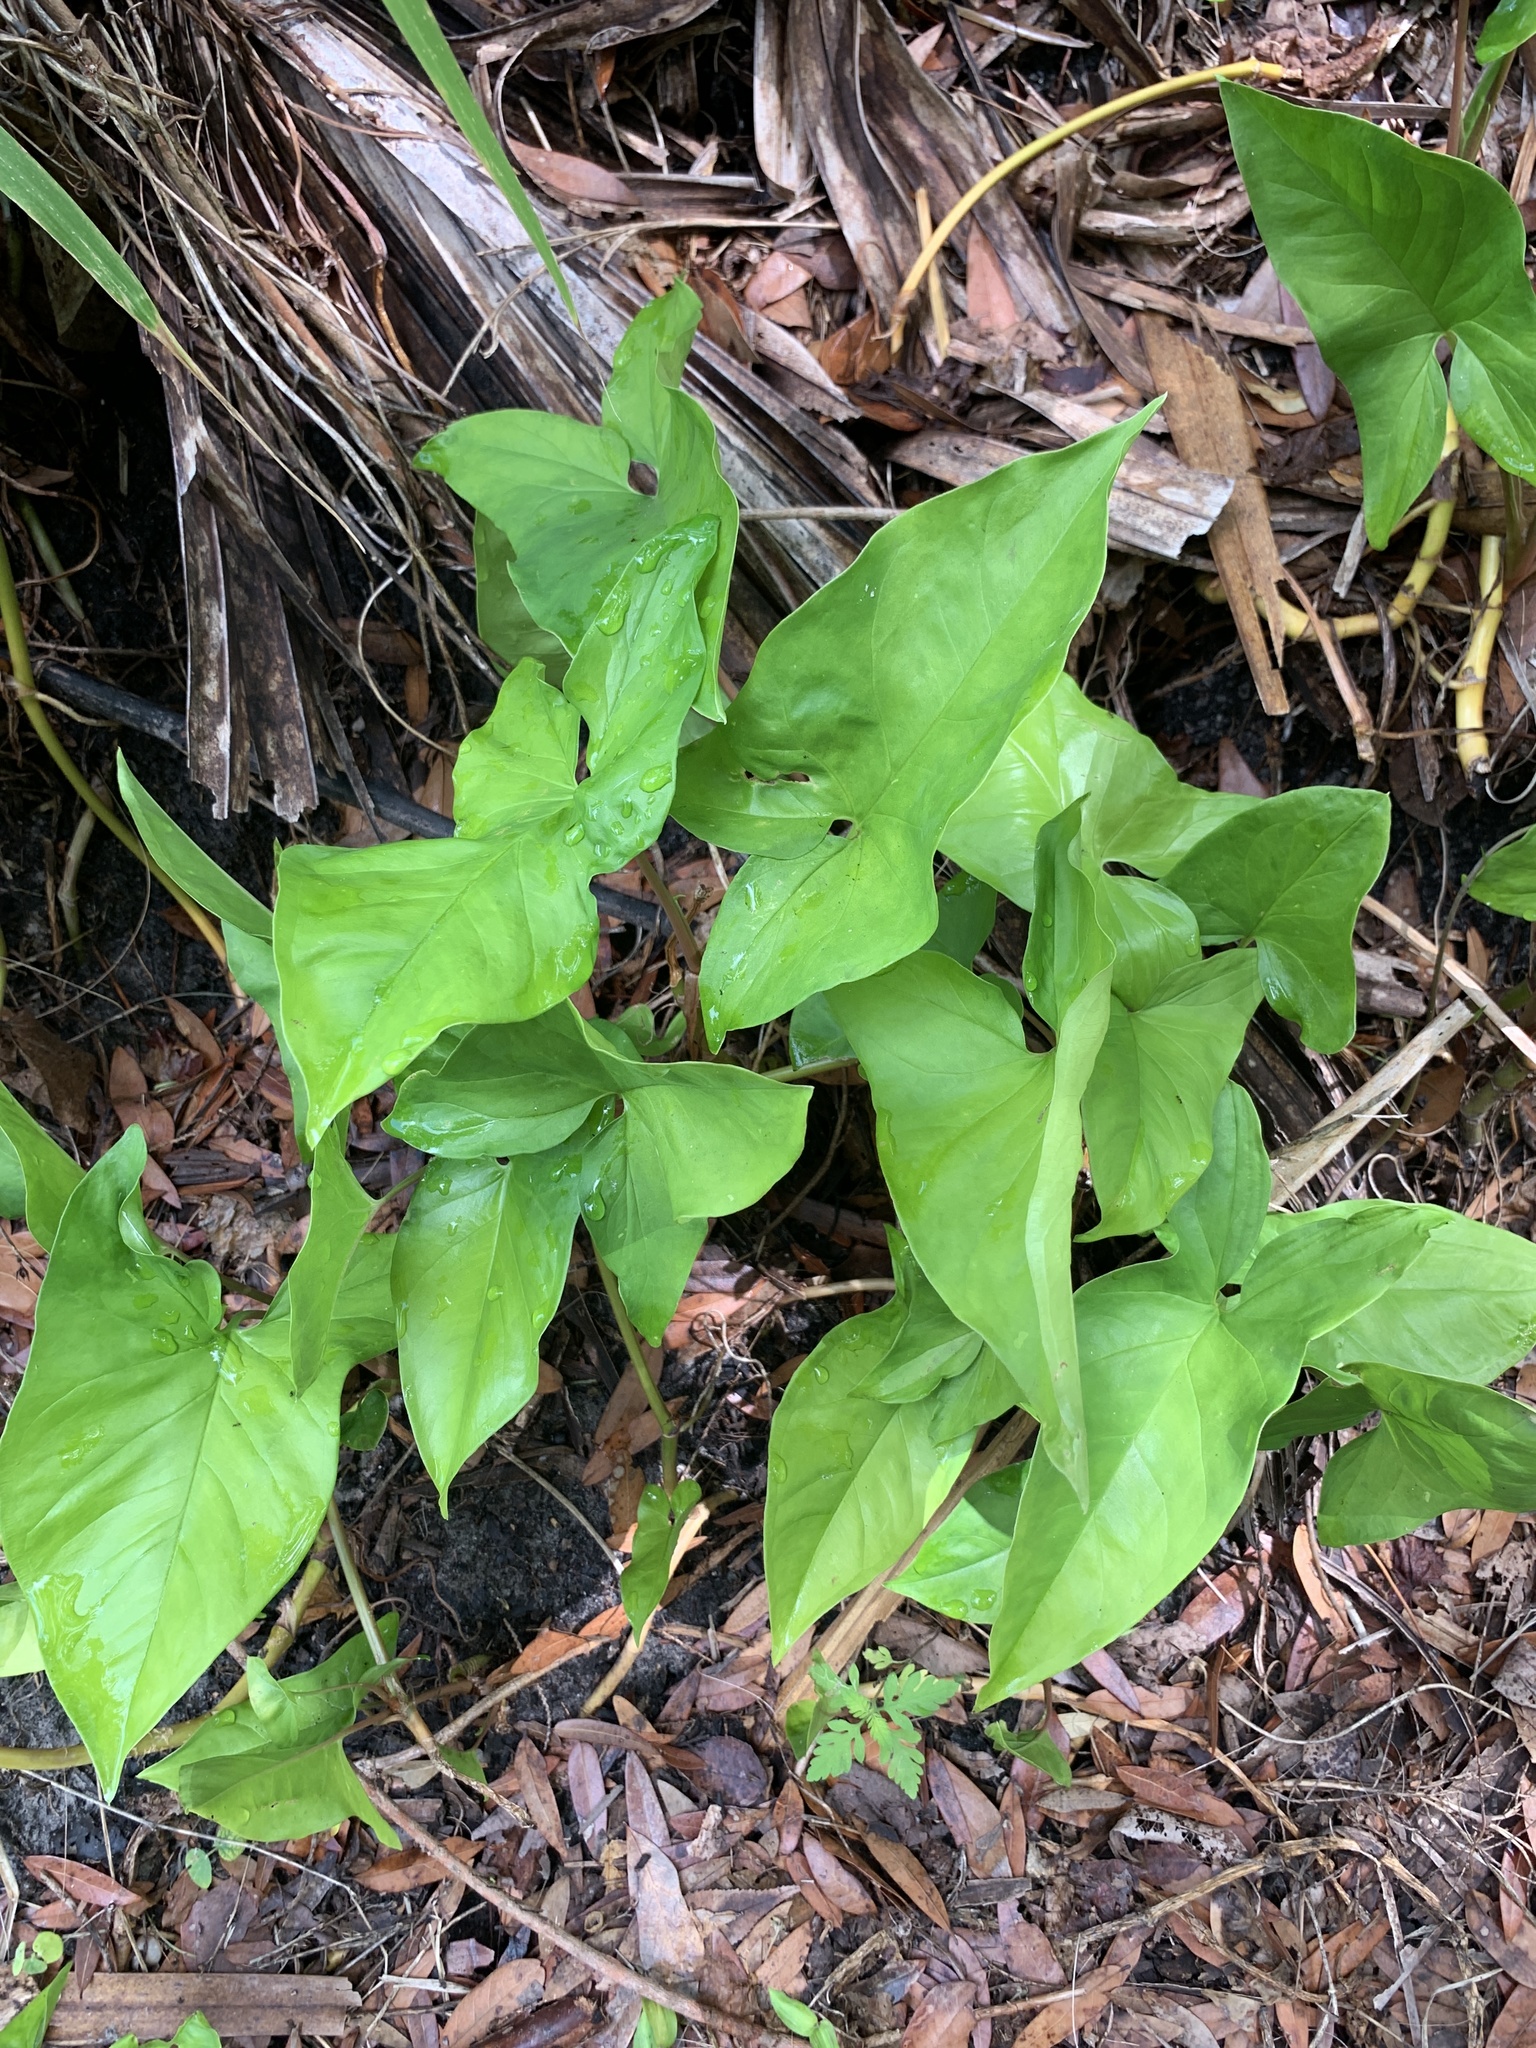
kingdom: Plantae
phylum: Tracheophyta
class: Liliopsida
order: Alismatales
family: Araceae
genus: Syngonium
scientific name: Syngonium podophyllum
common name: American evergreen
